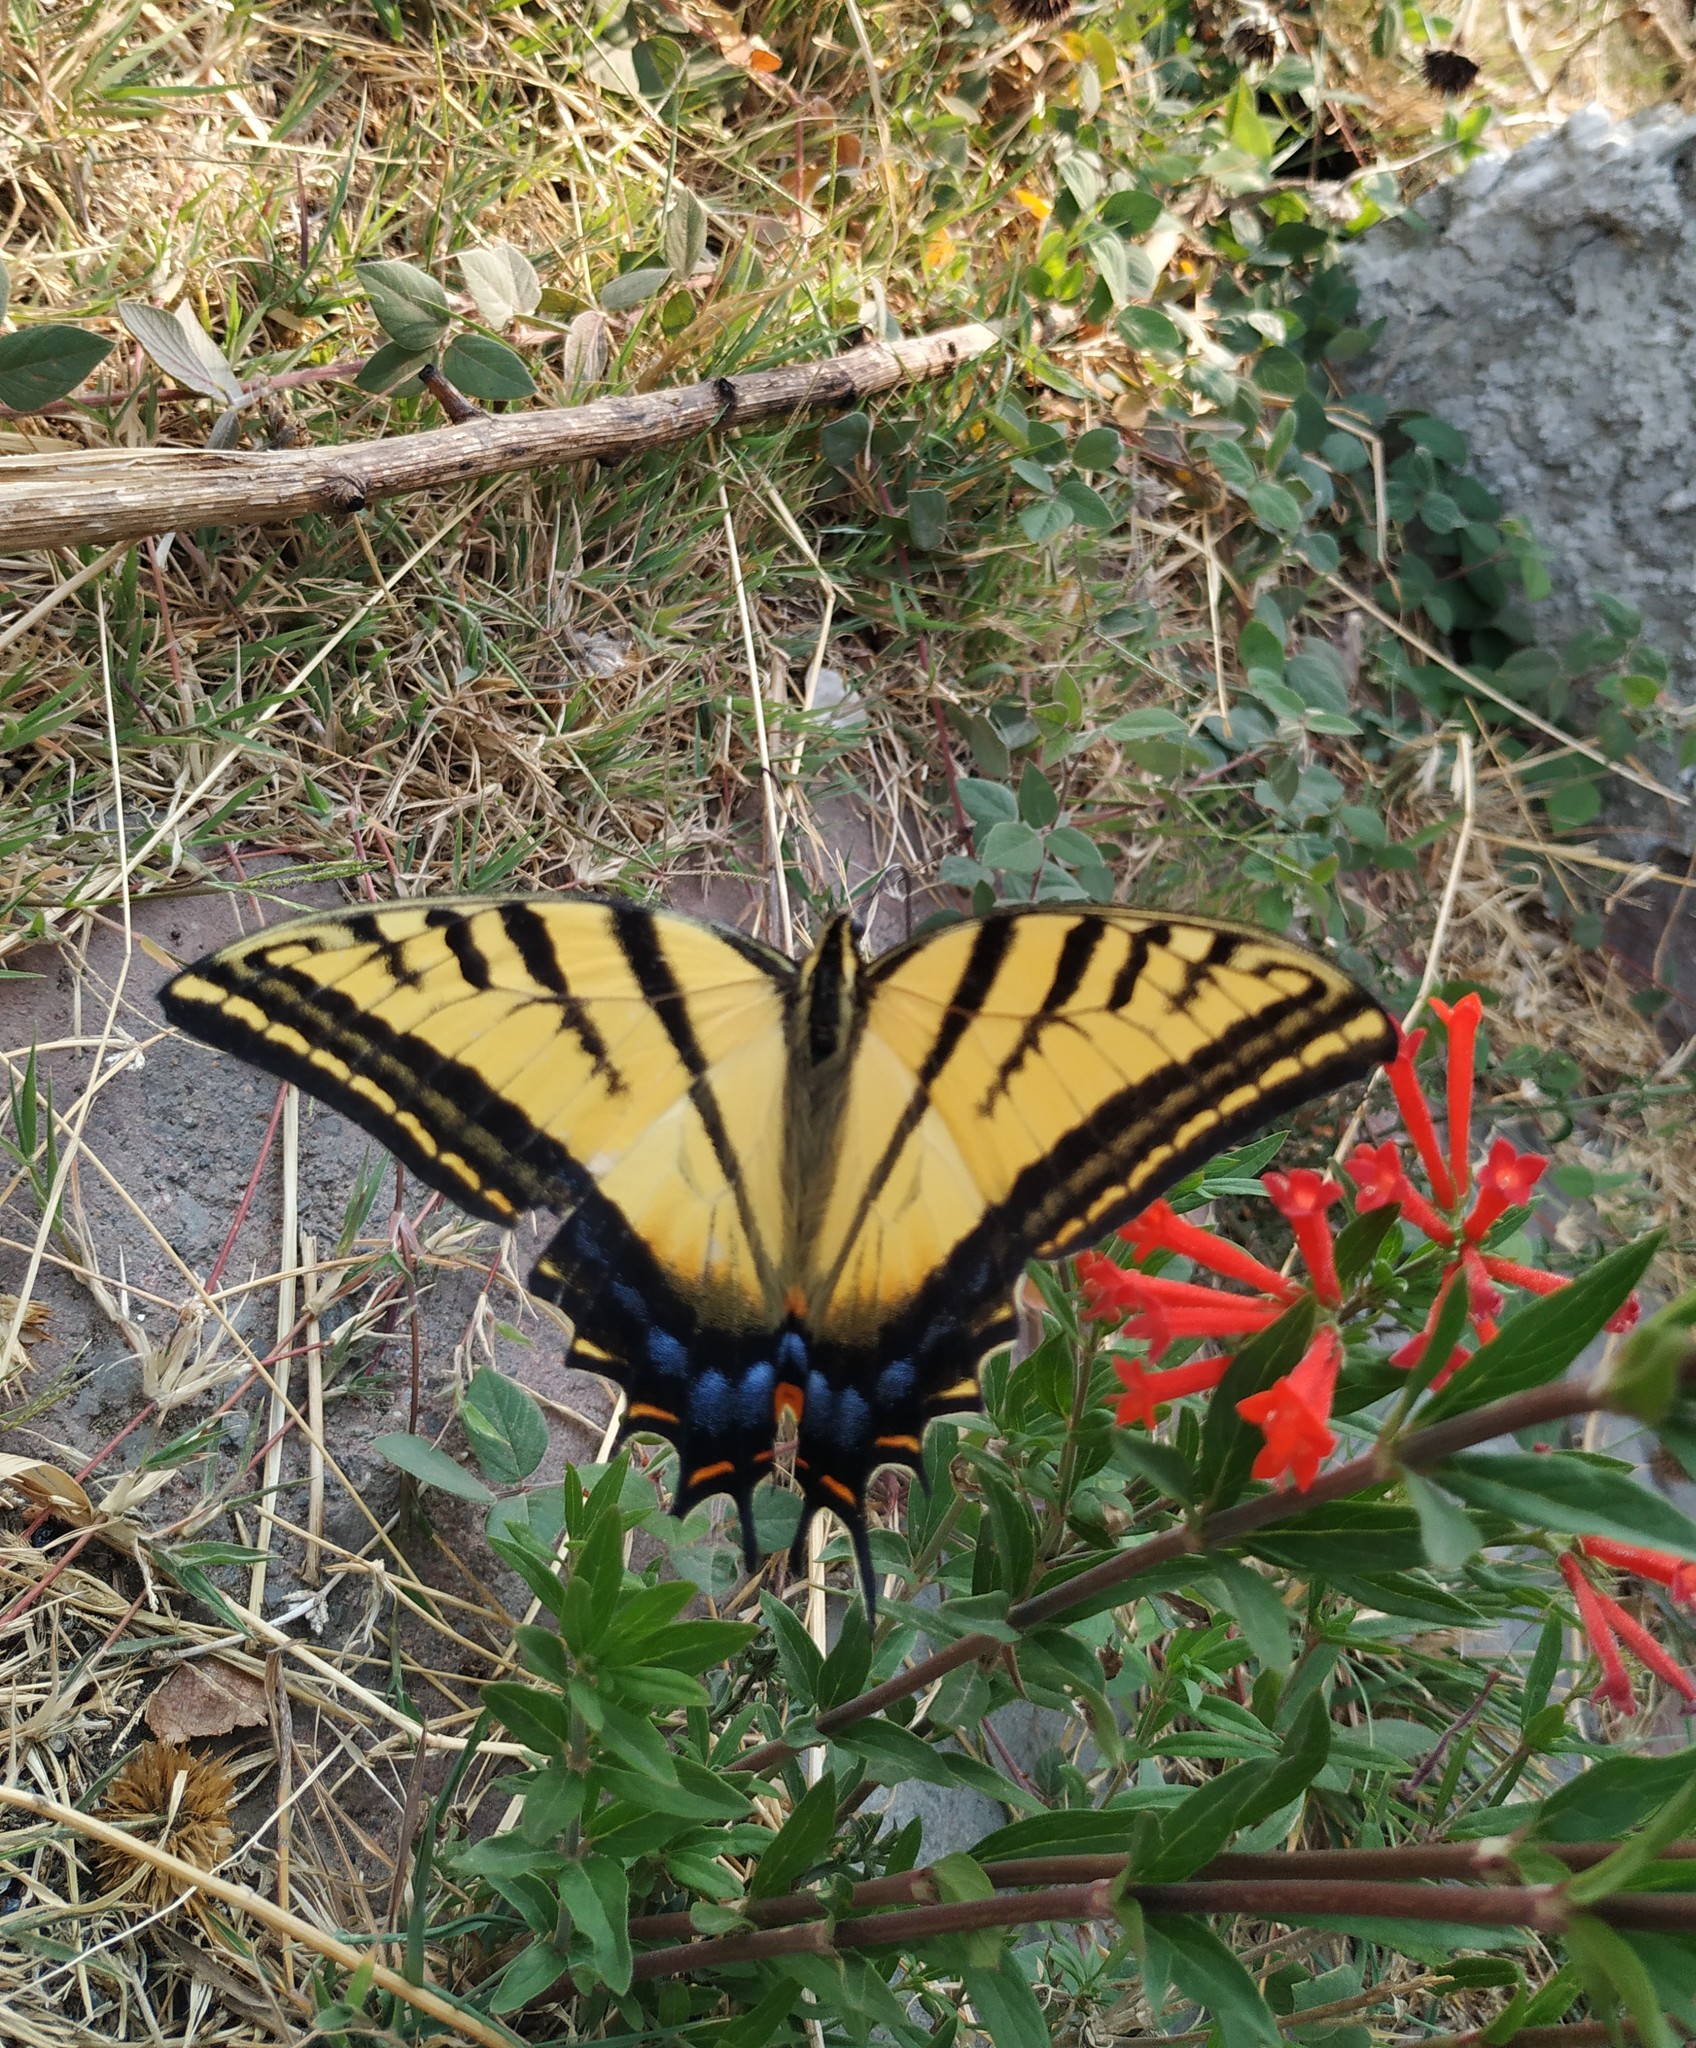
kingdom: Animalia
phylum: Arthropoda
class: Insecta
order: Lepidoptera
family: Papilionidae
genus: Papilio
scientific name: Papilio multicaudata
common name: Two-tailed tiger swallowtail
